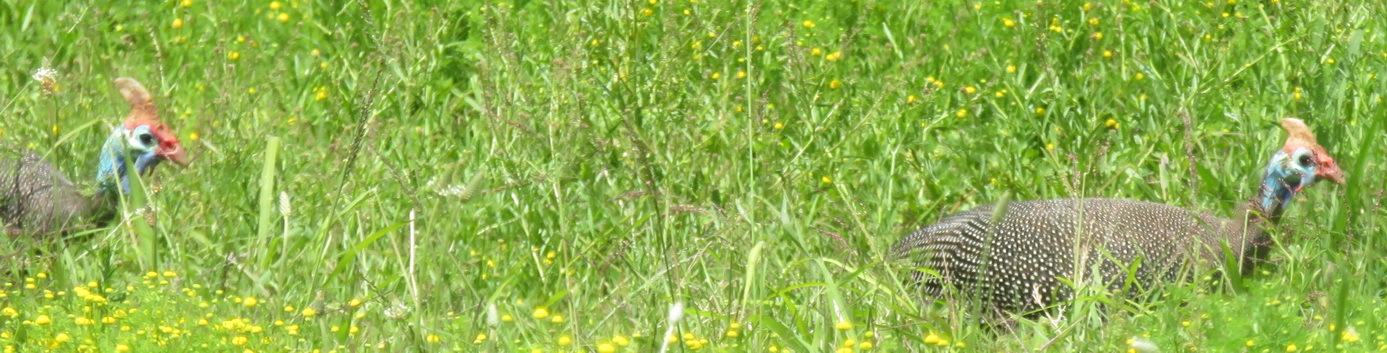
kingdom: Animalia
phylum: Chordata
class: Aves
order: Galliformes
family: Numididae
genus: Numida
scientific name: Numida meleagris
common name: Helmeted guineafowl
